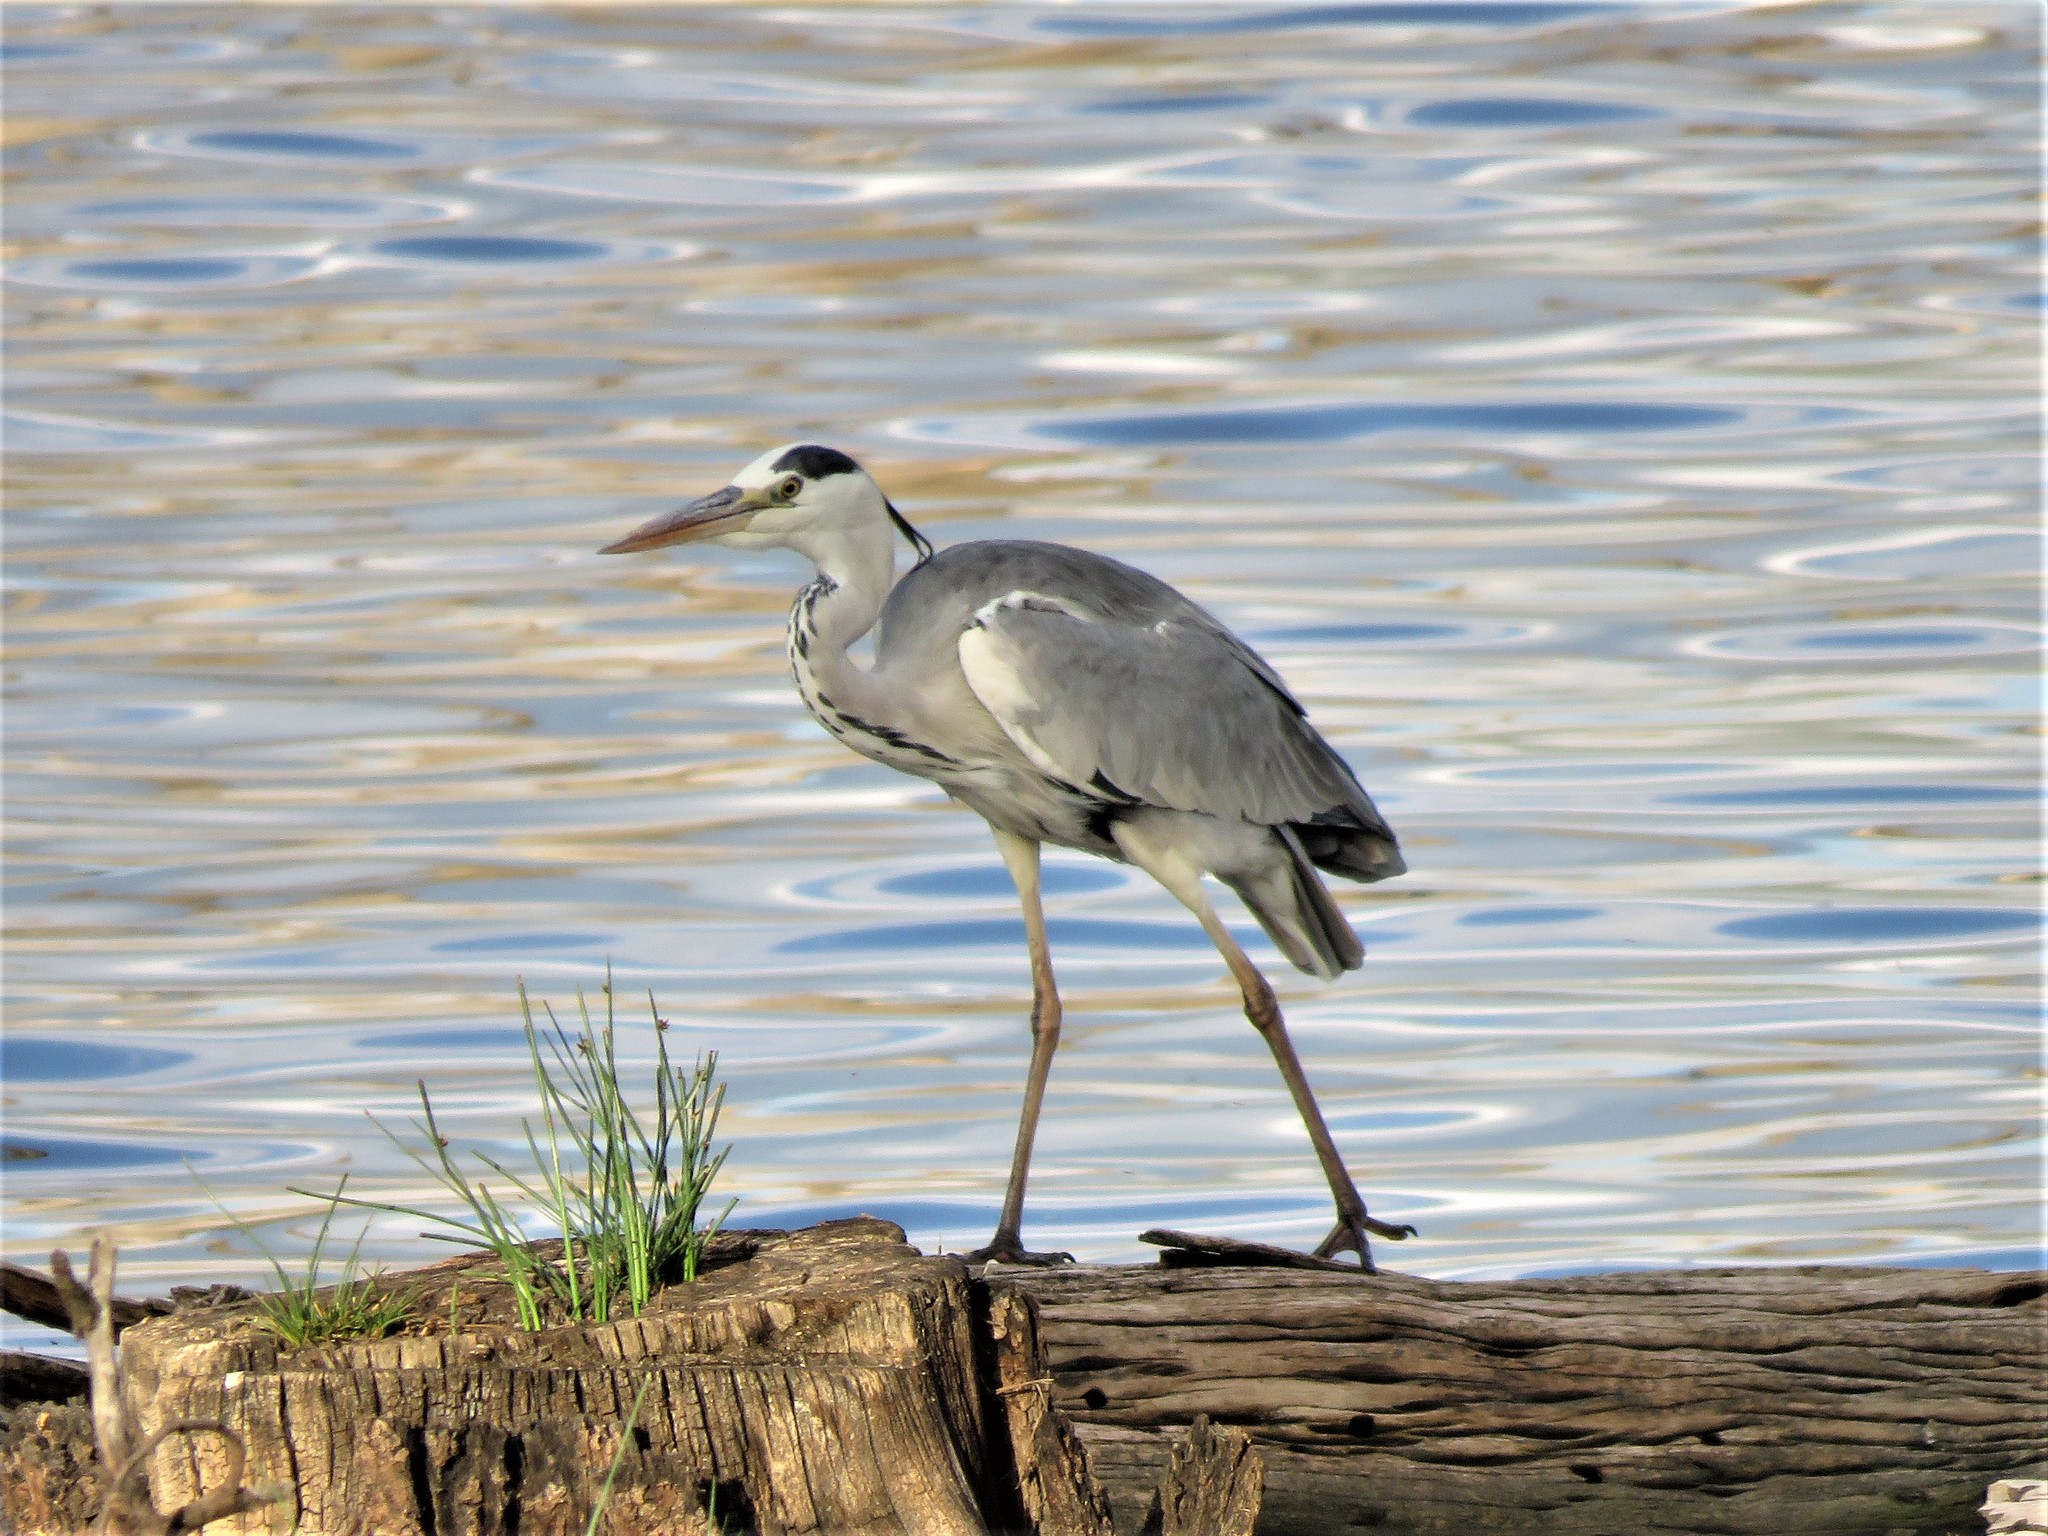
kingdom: Animalia
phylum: Chordata
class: Aves
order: Pelecaniformes
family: Ardeidae
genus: Ardea
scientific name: Ardea cinerea
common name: Grey heron
